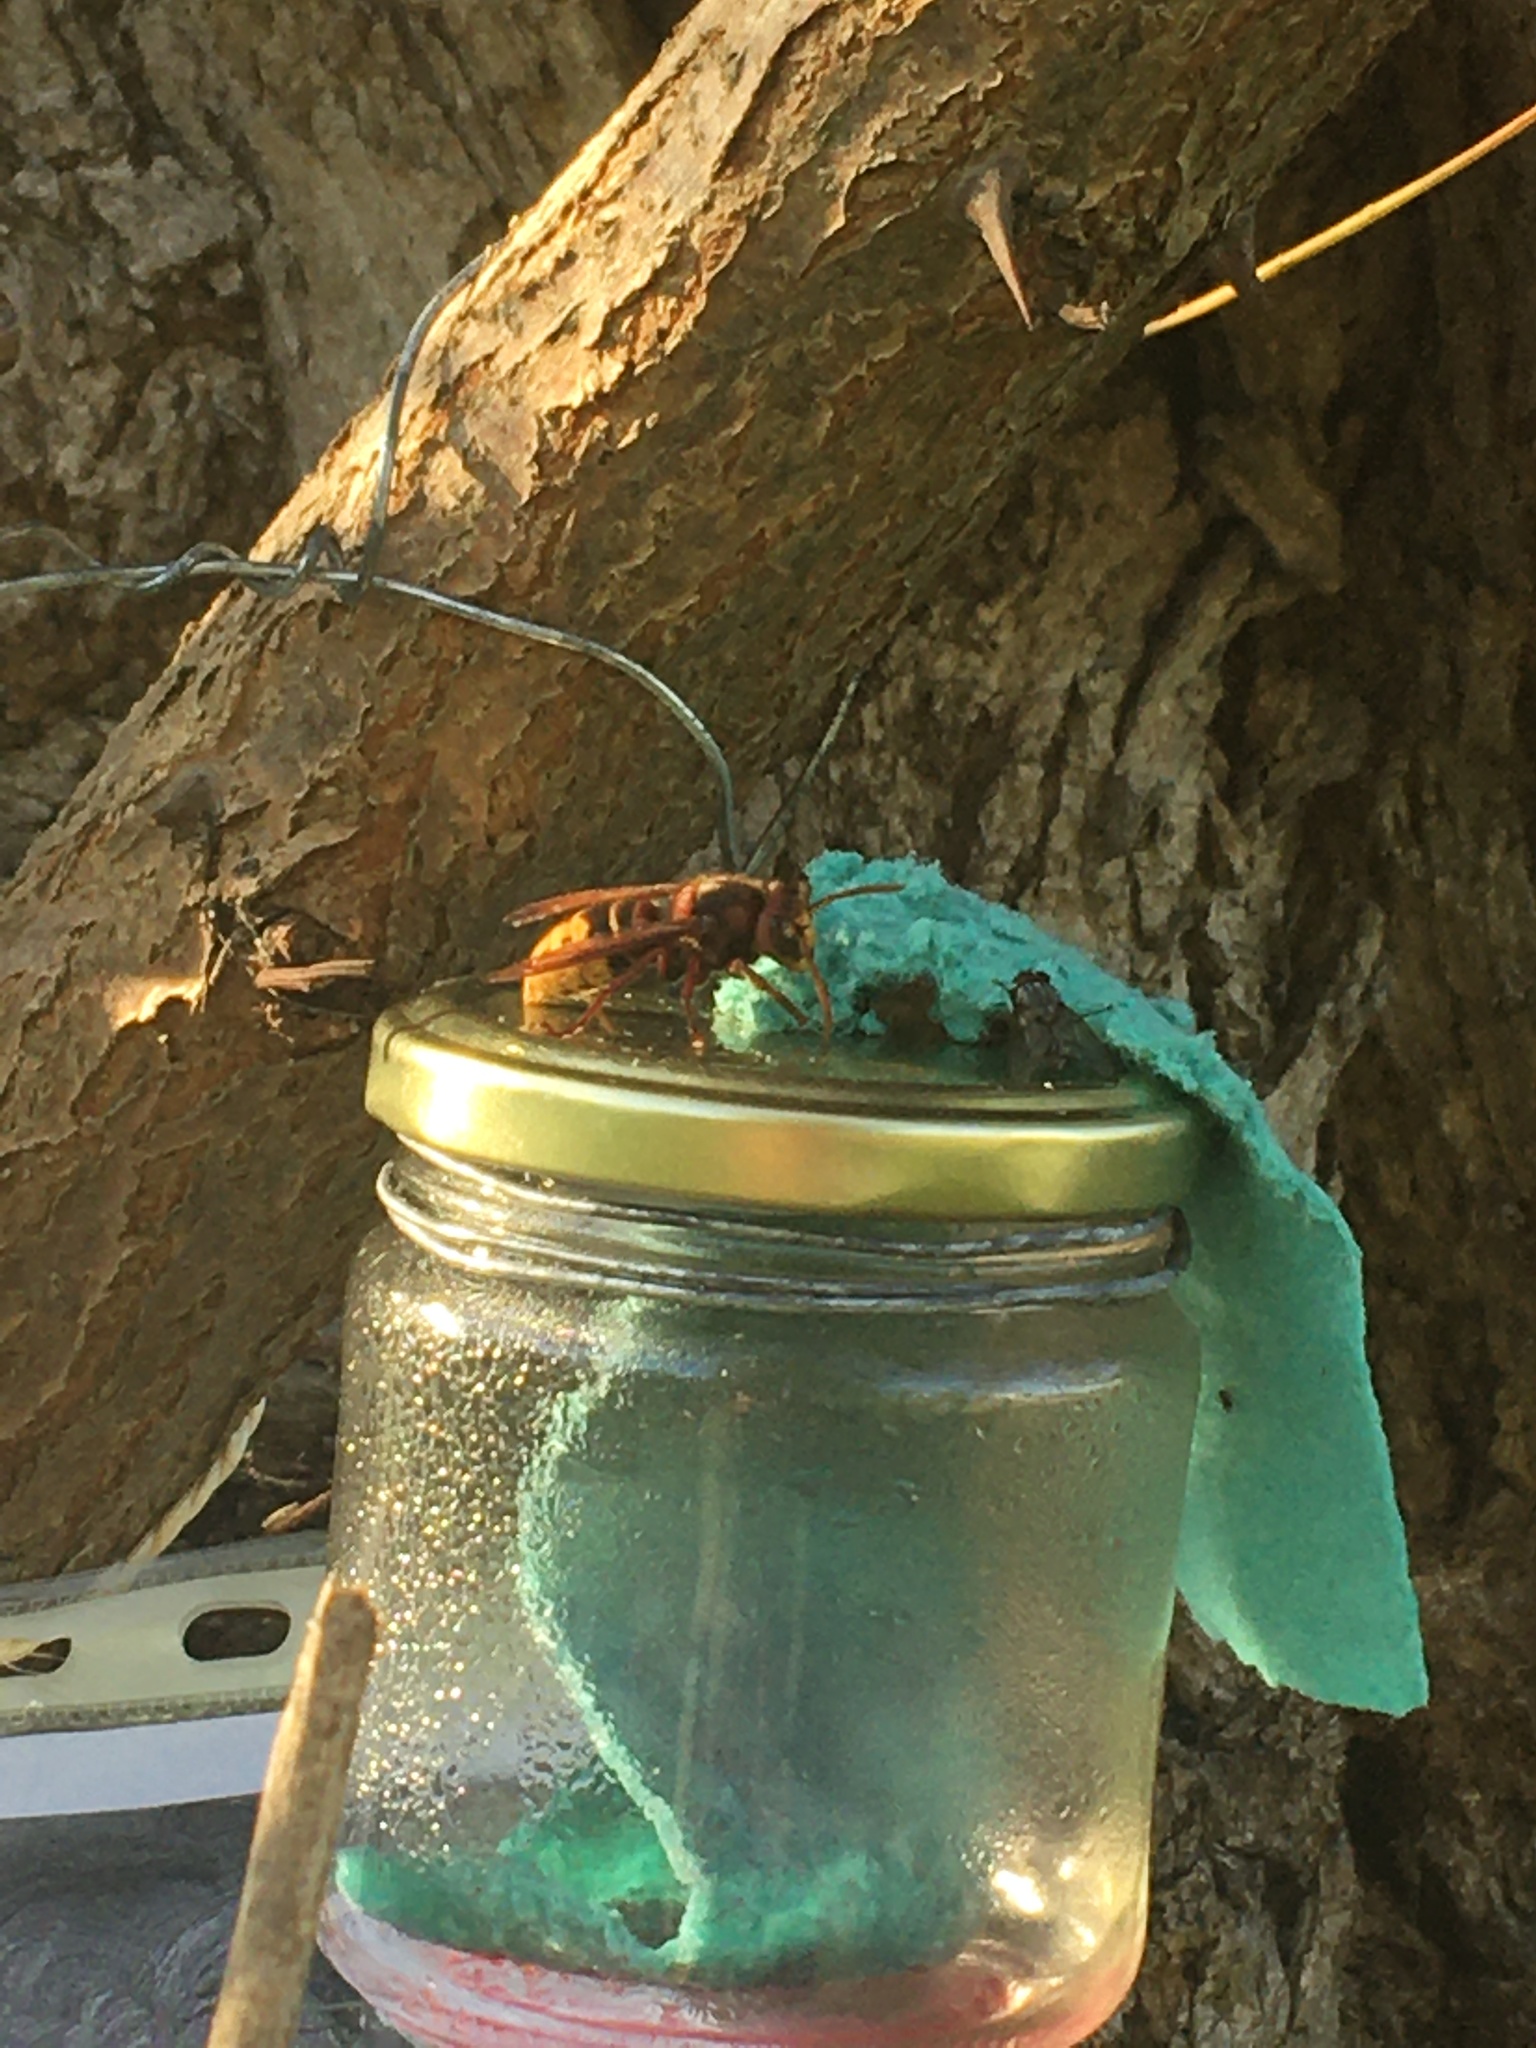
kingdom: Animalia
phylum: Arthropoda
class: Insecta
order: Hymenoptera
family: Vespidae
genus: Vespa
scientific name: Vespa crabro
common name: Hornet
